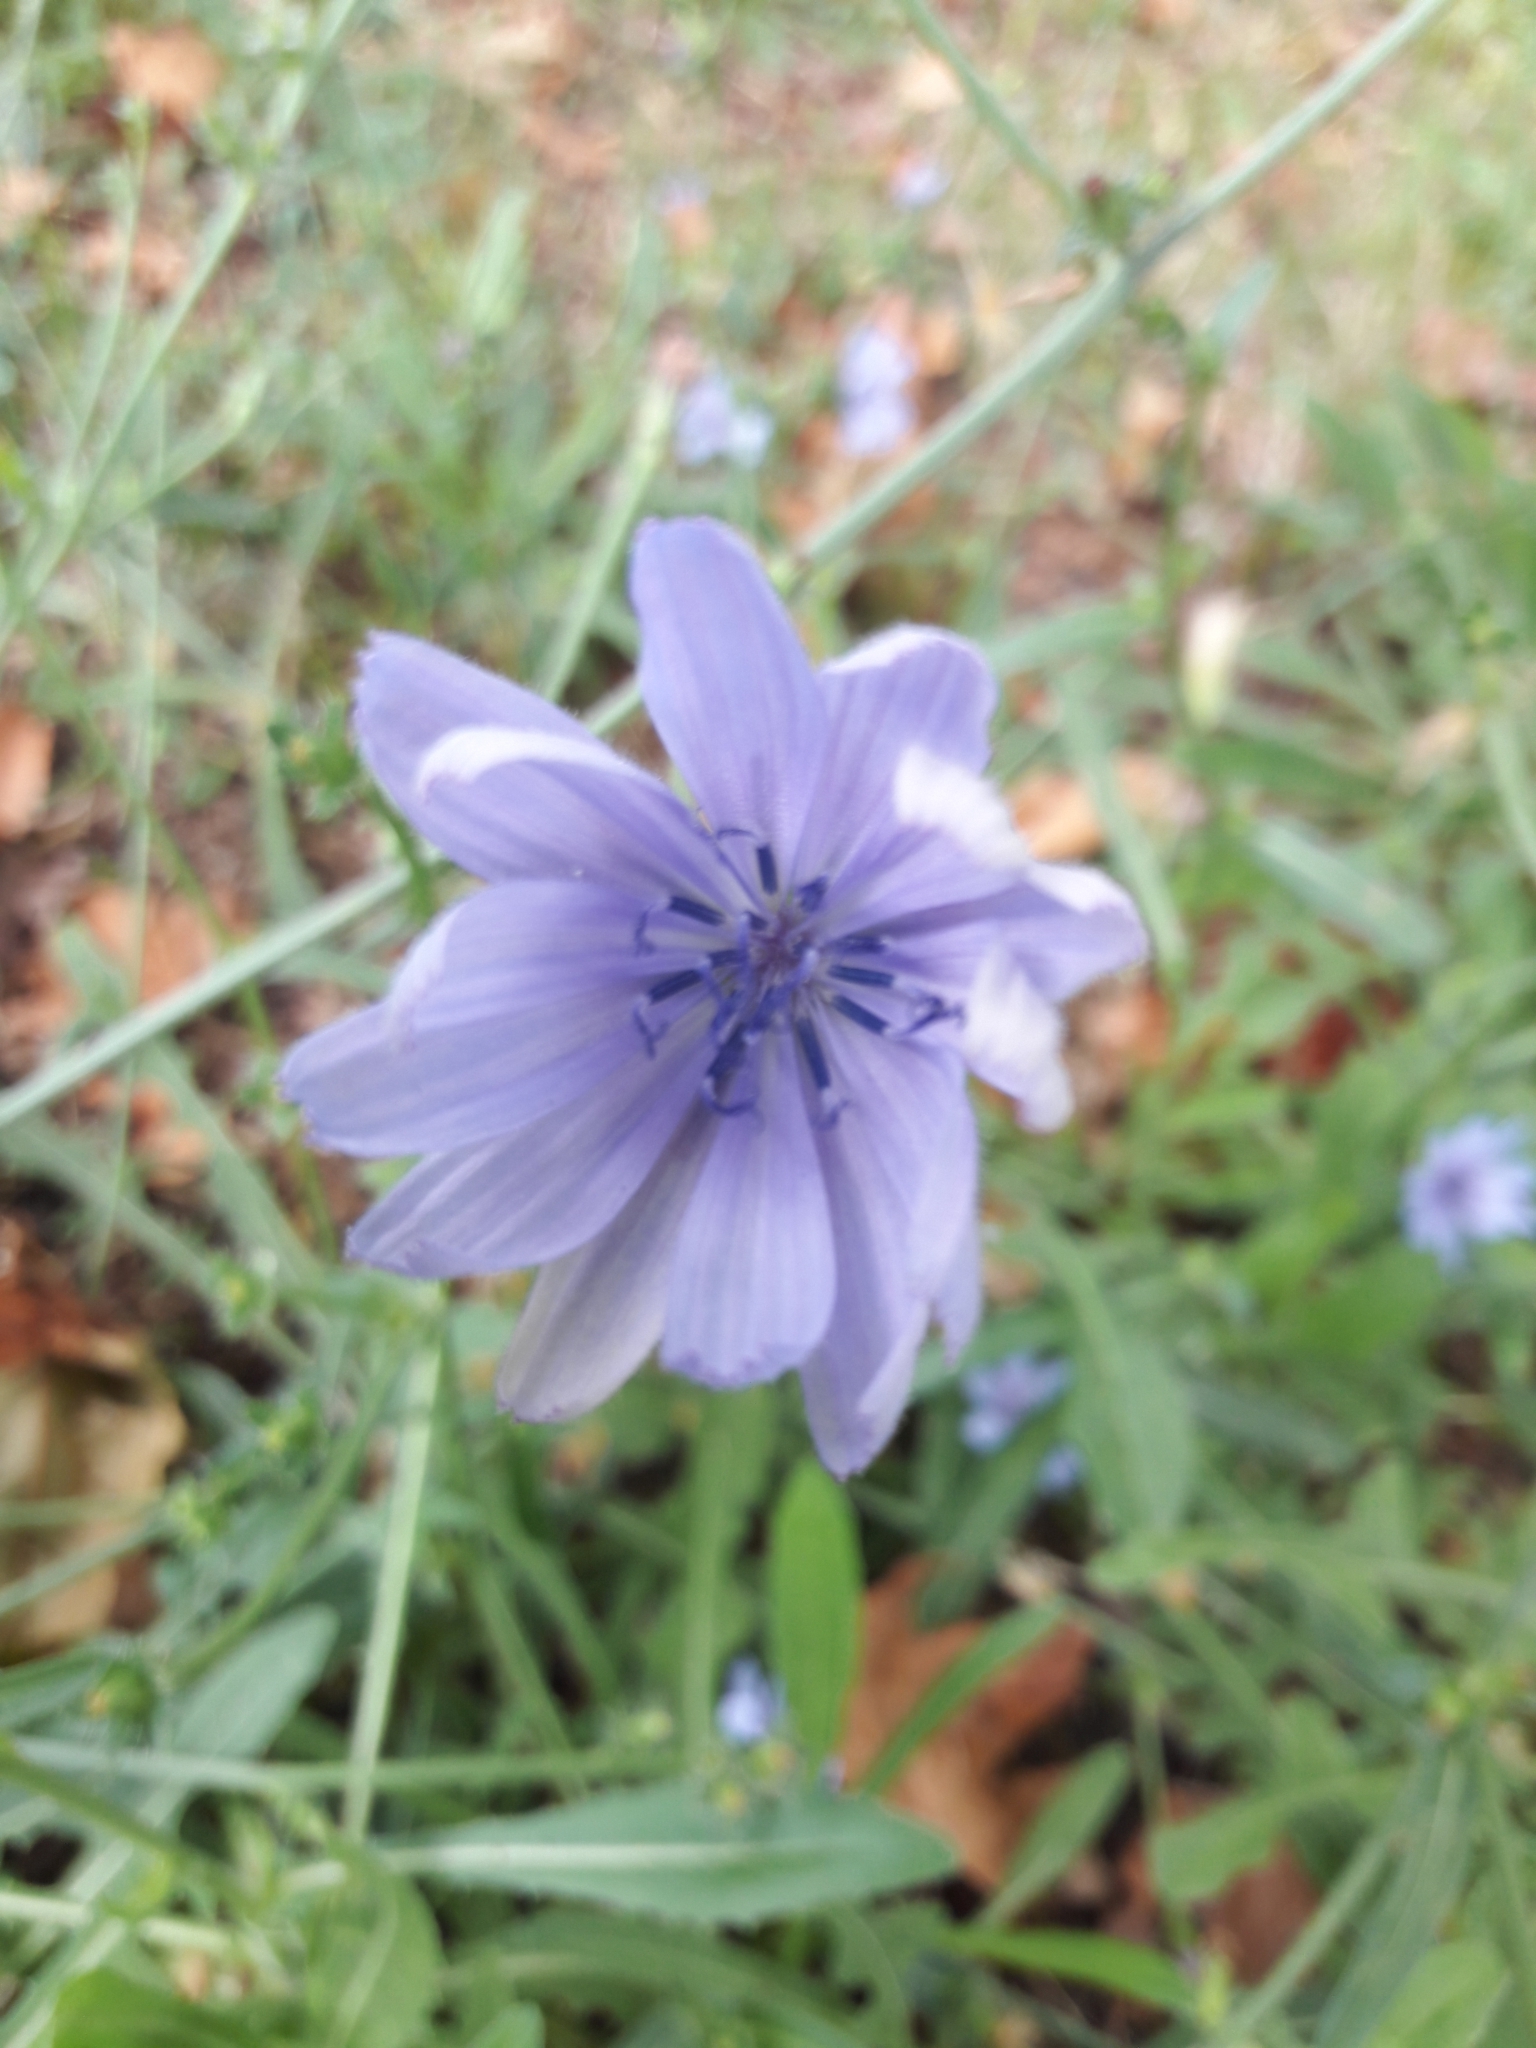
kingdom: Plantae
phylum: Tracheophyta
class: Magnoliopsida
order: Asterales
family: Asteraceae
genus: Cichorium
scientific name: Cichorium intybus
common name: Chicory
